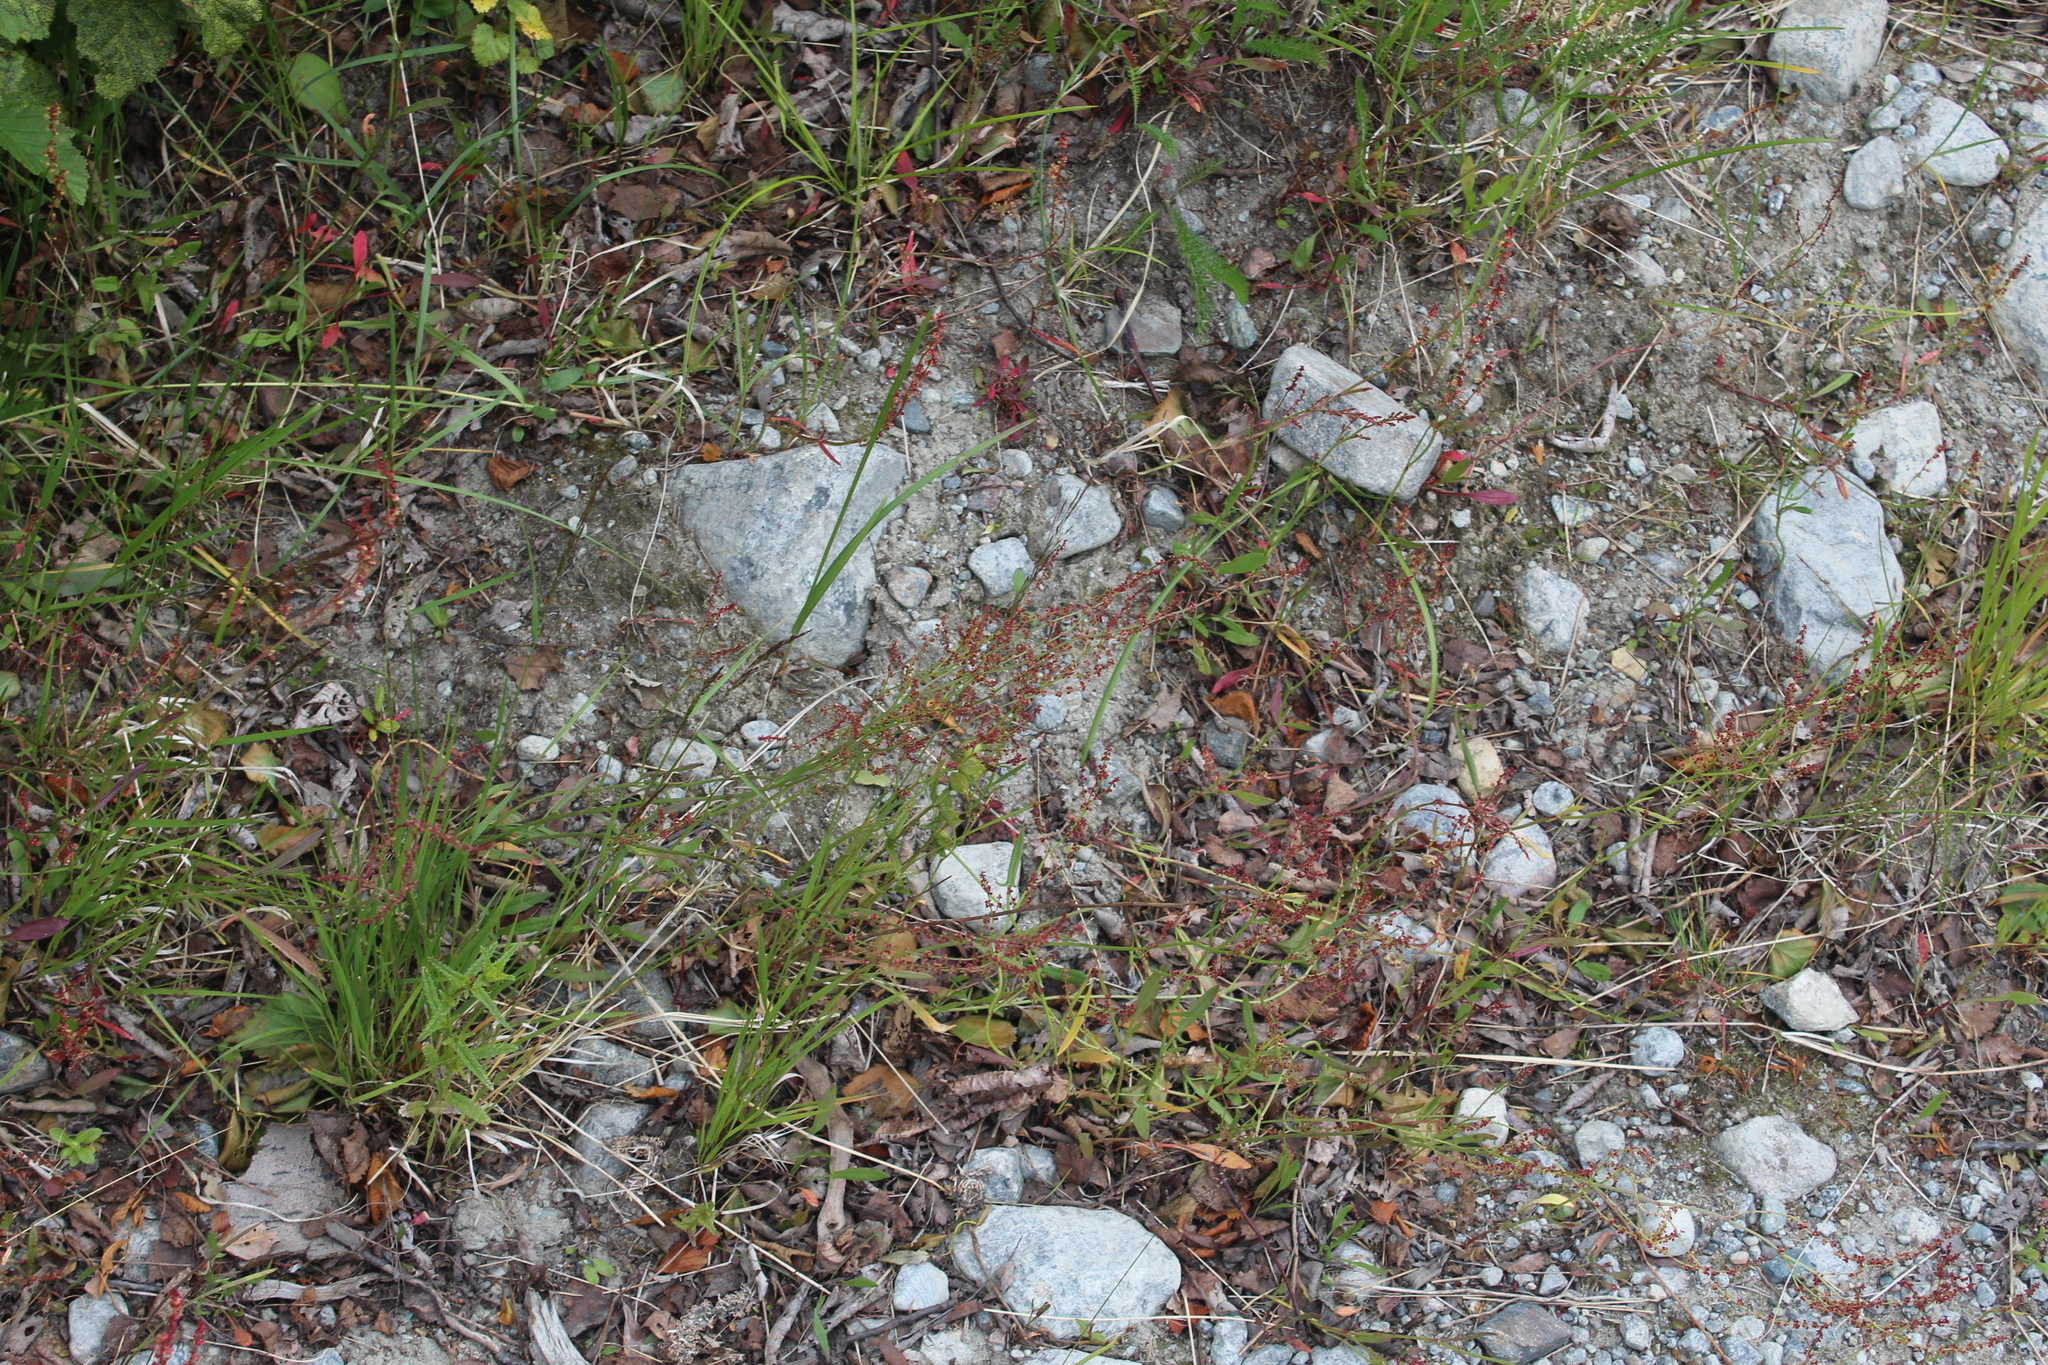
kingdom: Plantae
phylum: Tracheophyta
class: Magnoliopsida
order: Caryophyllales
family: Polygonaceae
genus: Rumex
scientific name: Rumex acetosella
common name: Common sheep sorrel
